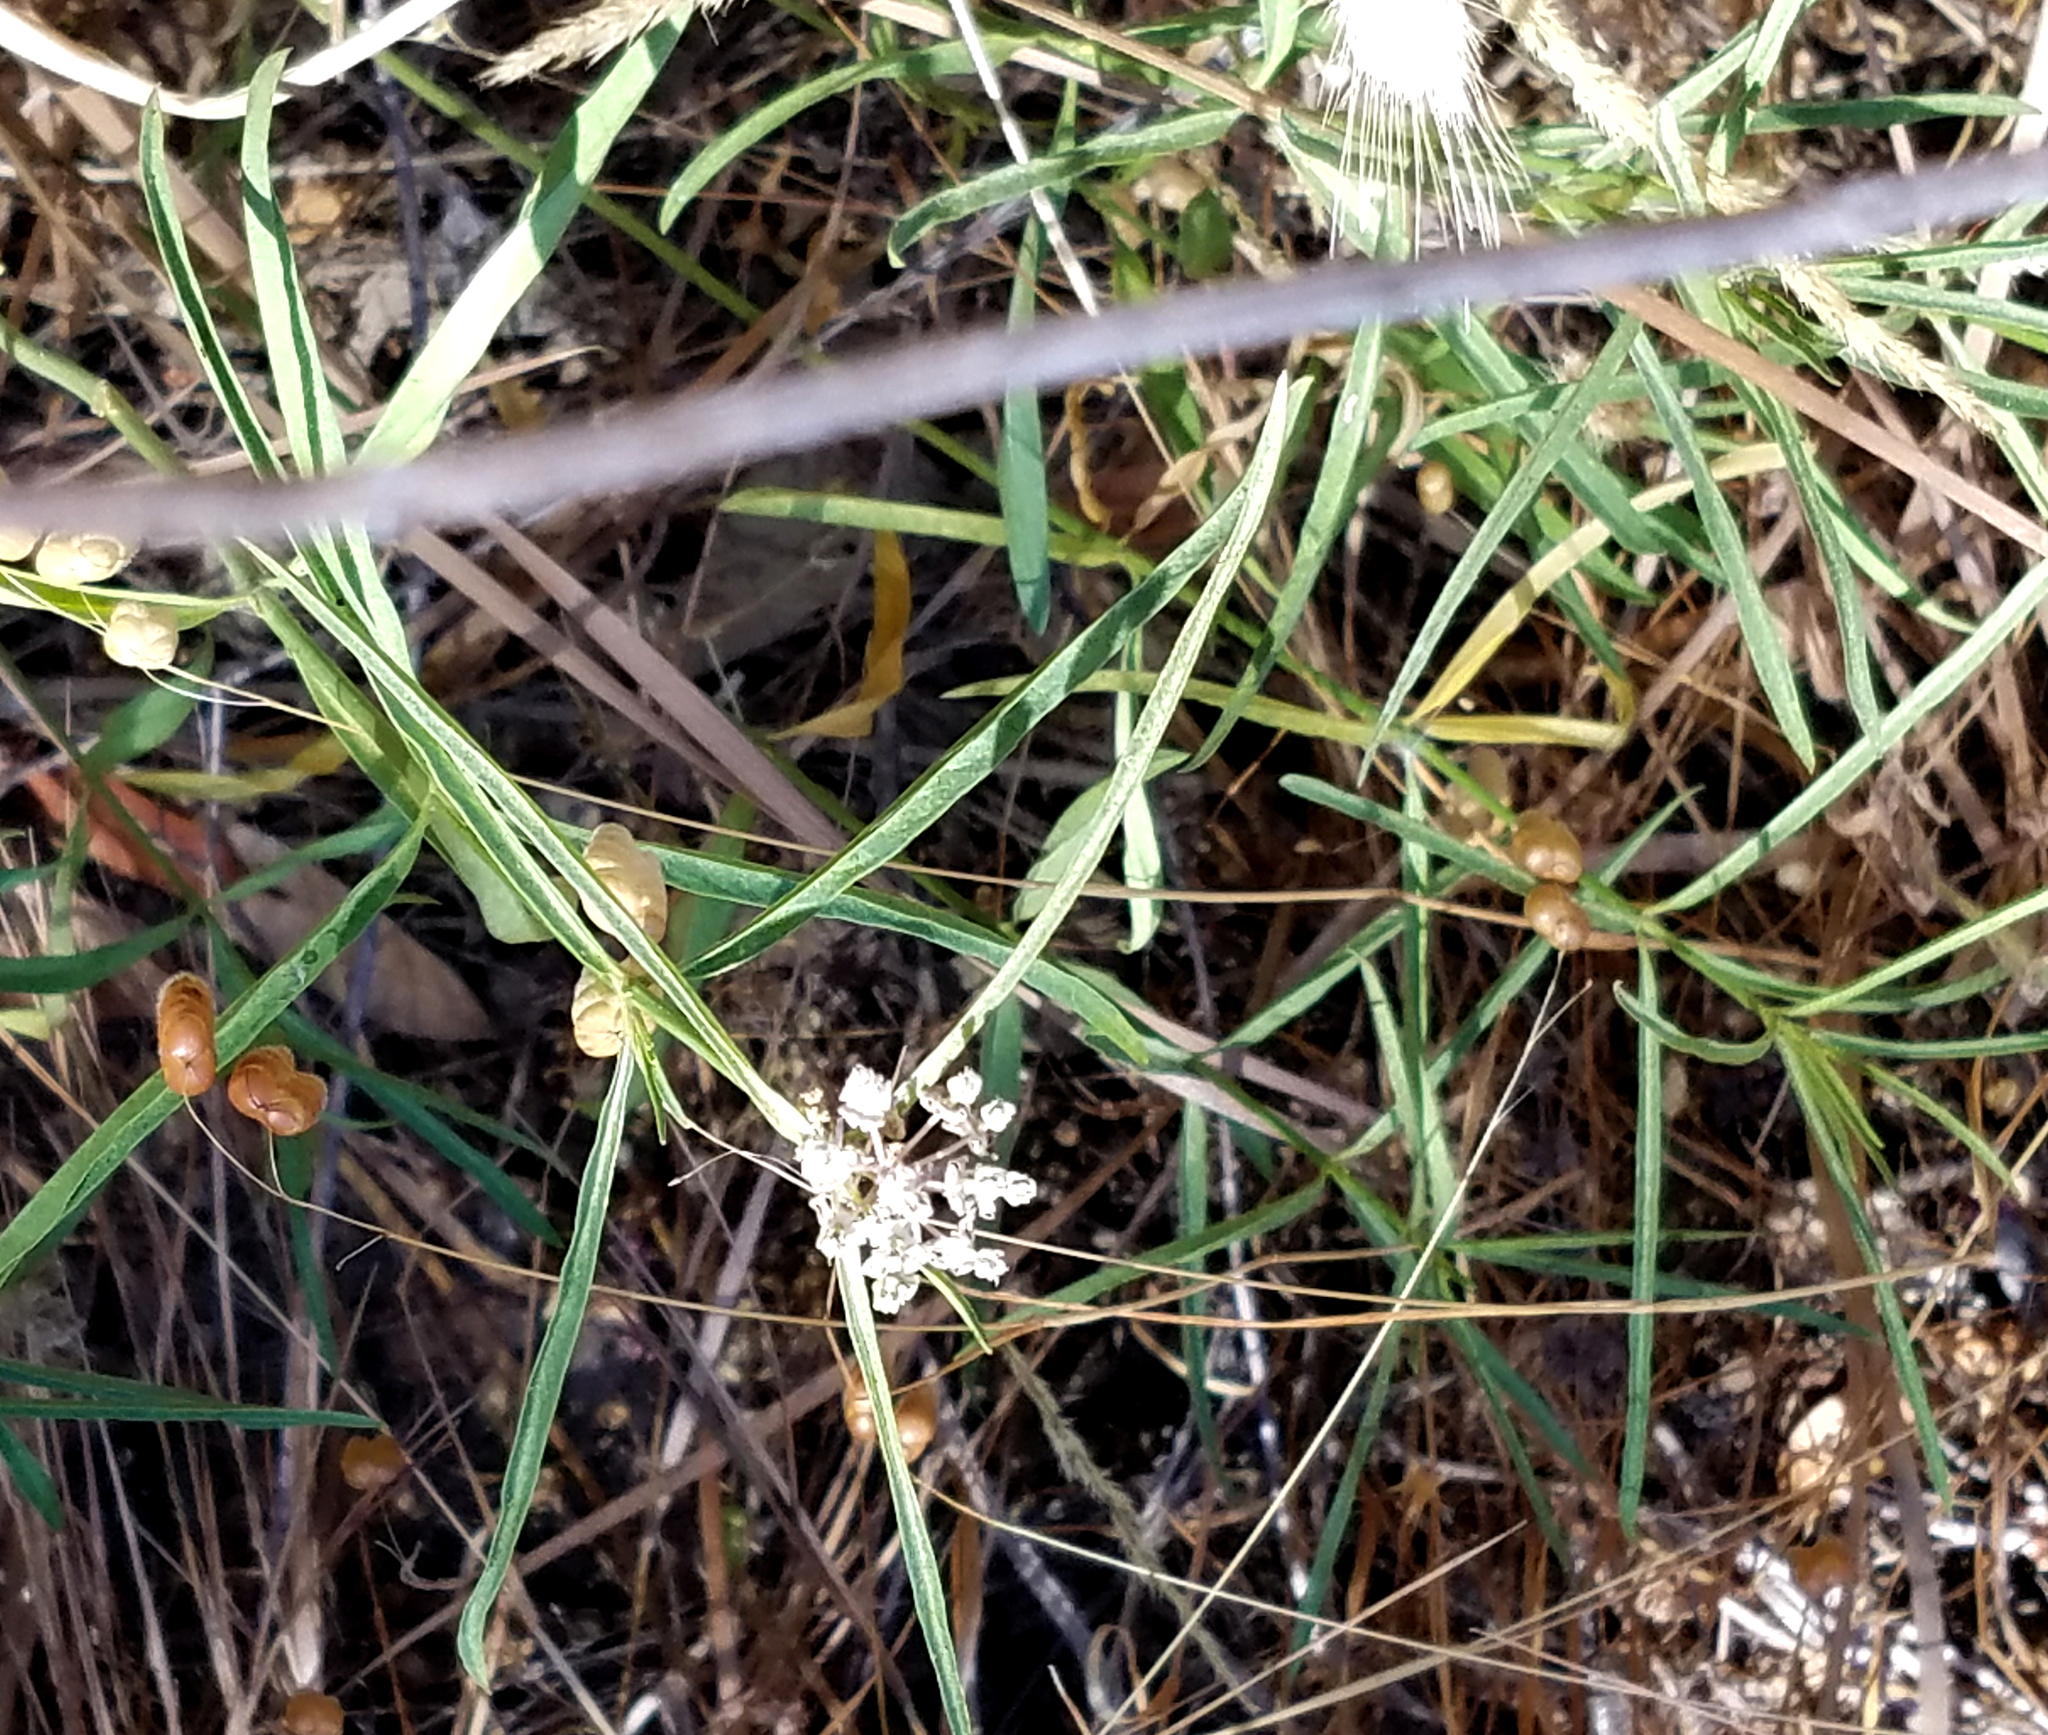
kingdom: Plantae
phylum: Tracheophyta
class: Magnoliopsida
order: Gentianales
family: Apocynaceae
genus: Asclepias
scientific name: Asclepias fascicularis
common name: Mexican milkweed
